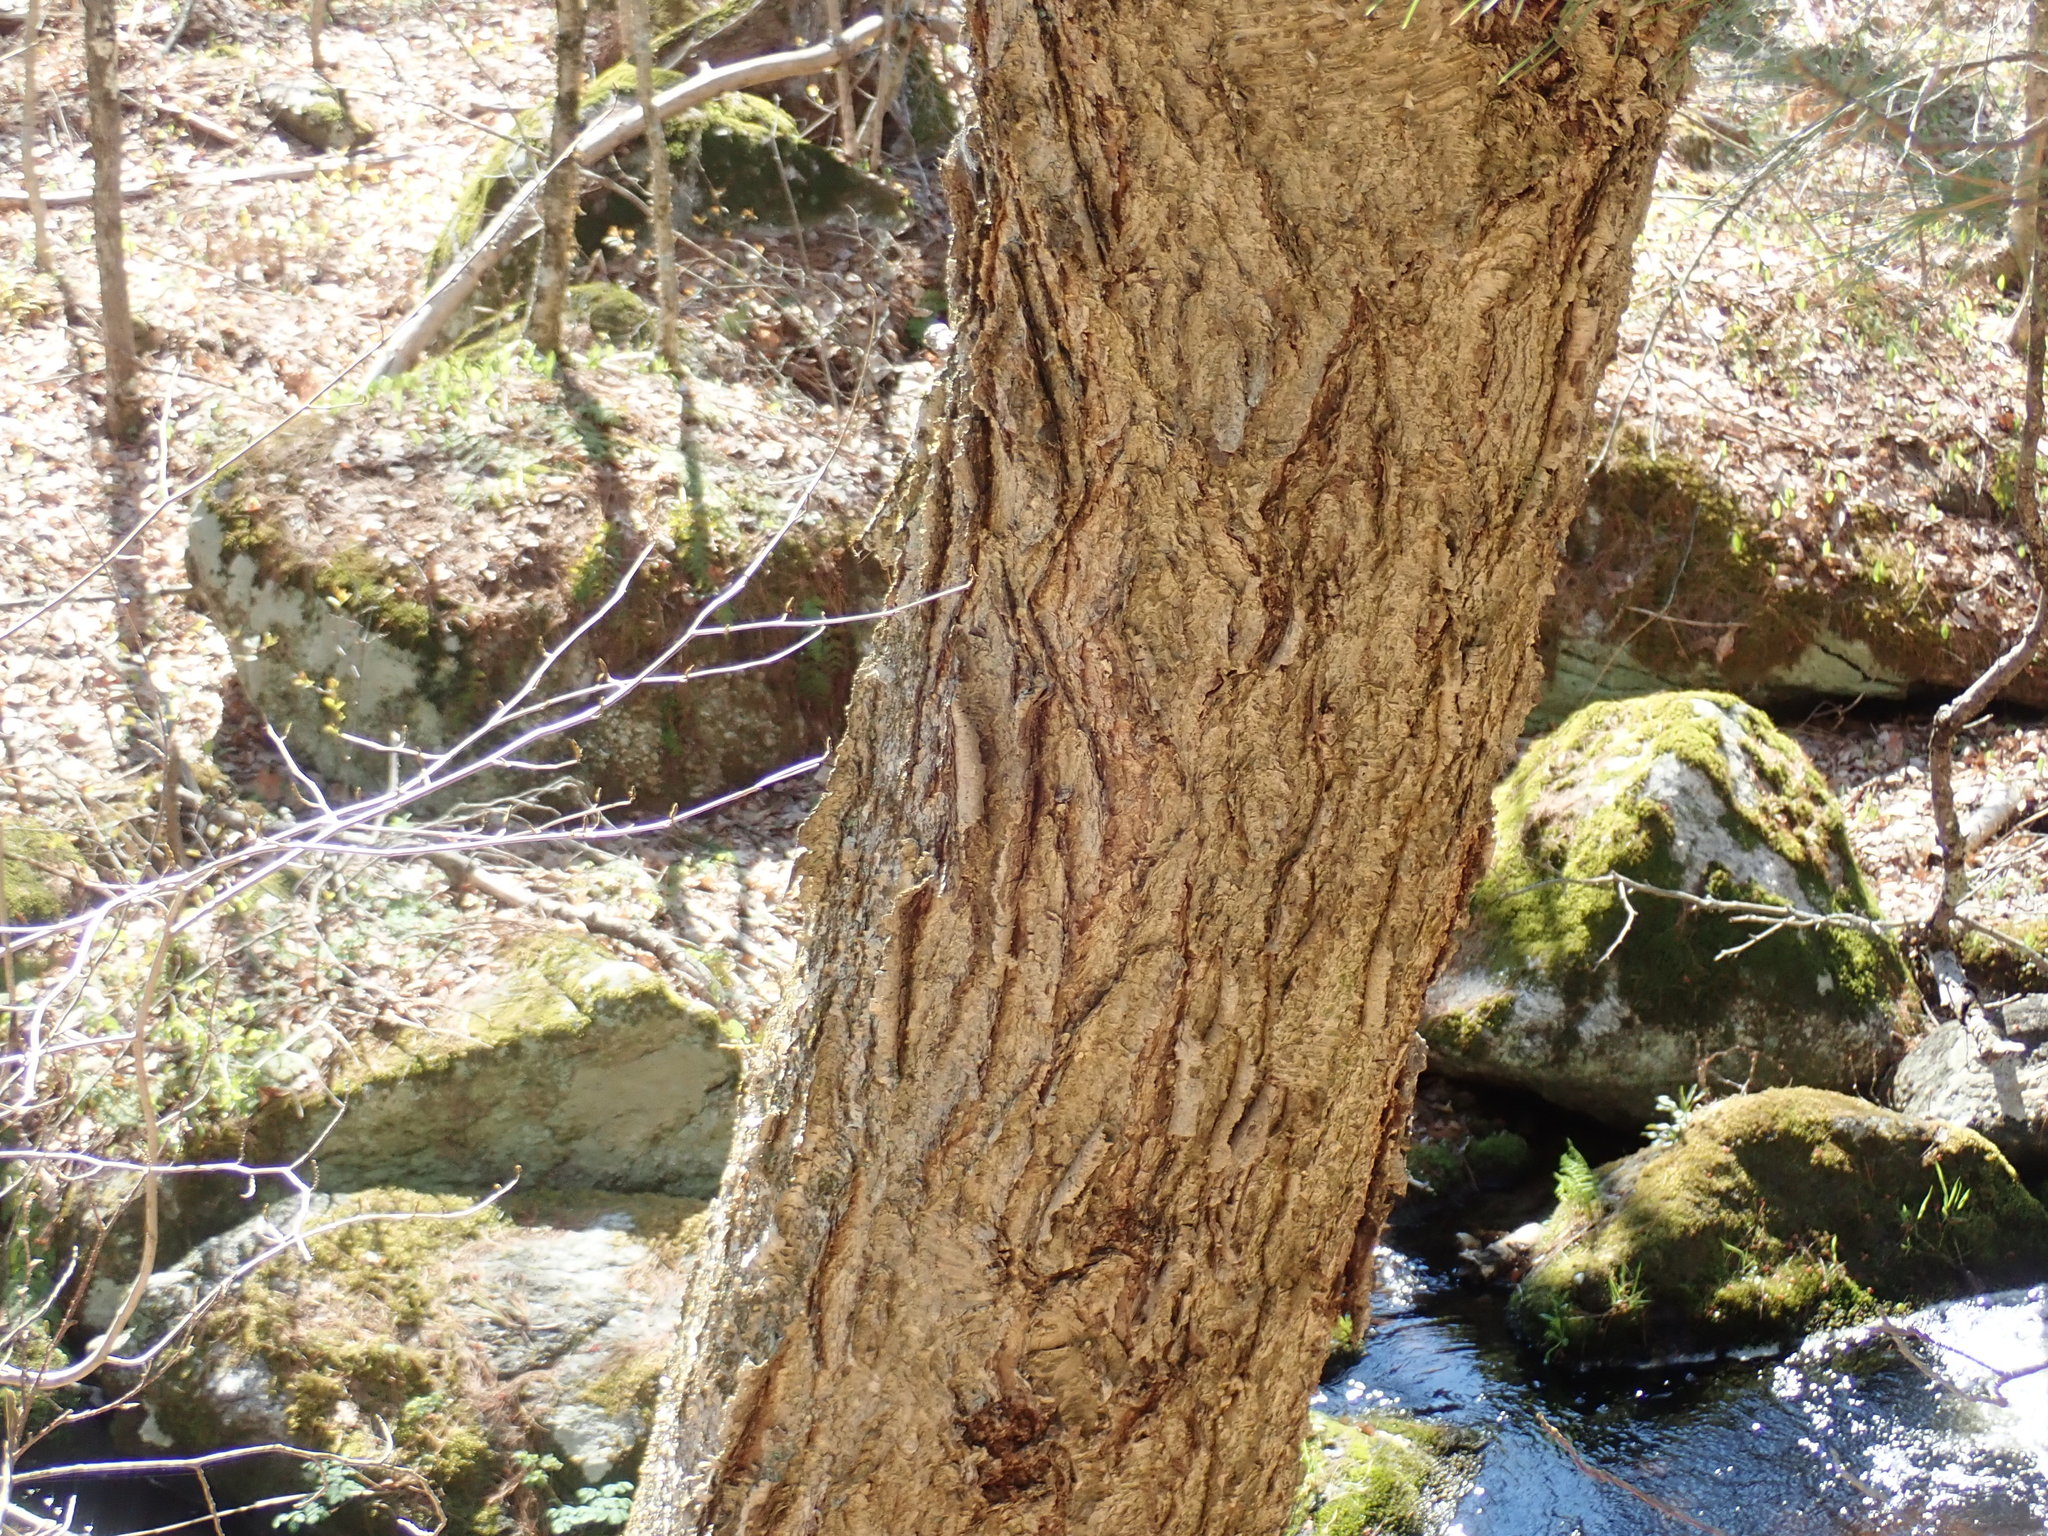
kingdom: Plantae
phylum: Tracheophyta
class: Magnoliopsida
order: Fagales
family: Betulaceae
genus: Betula
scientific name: Betula alleghaniensis
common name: Yellow birch
